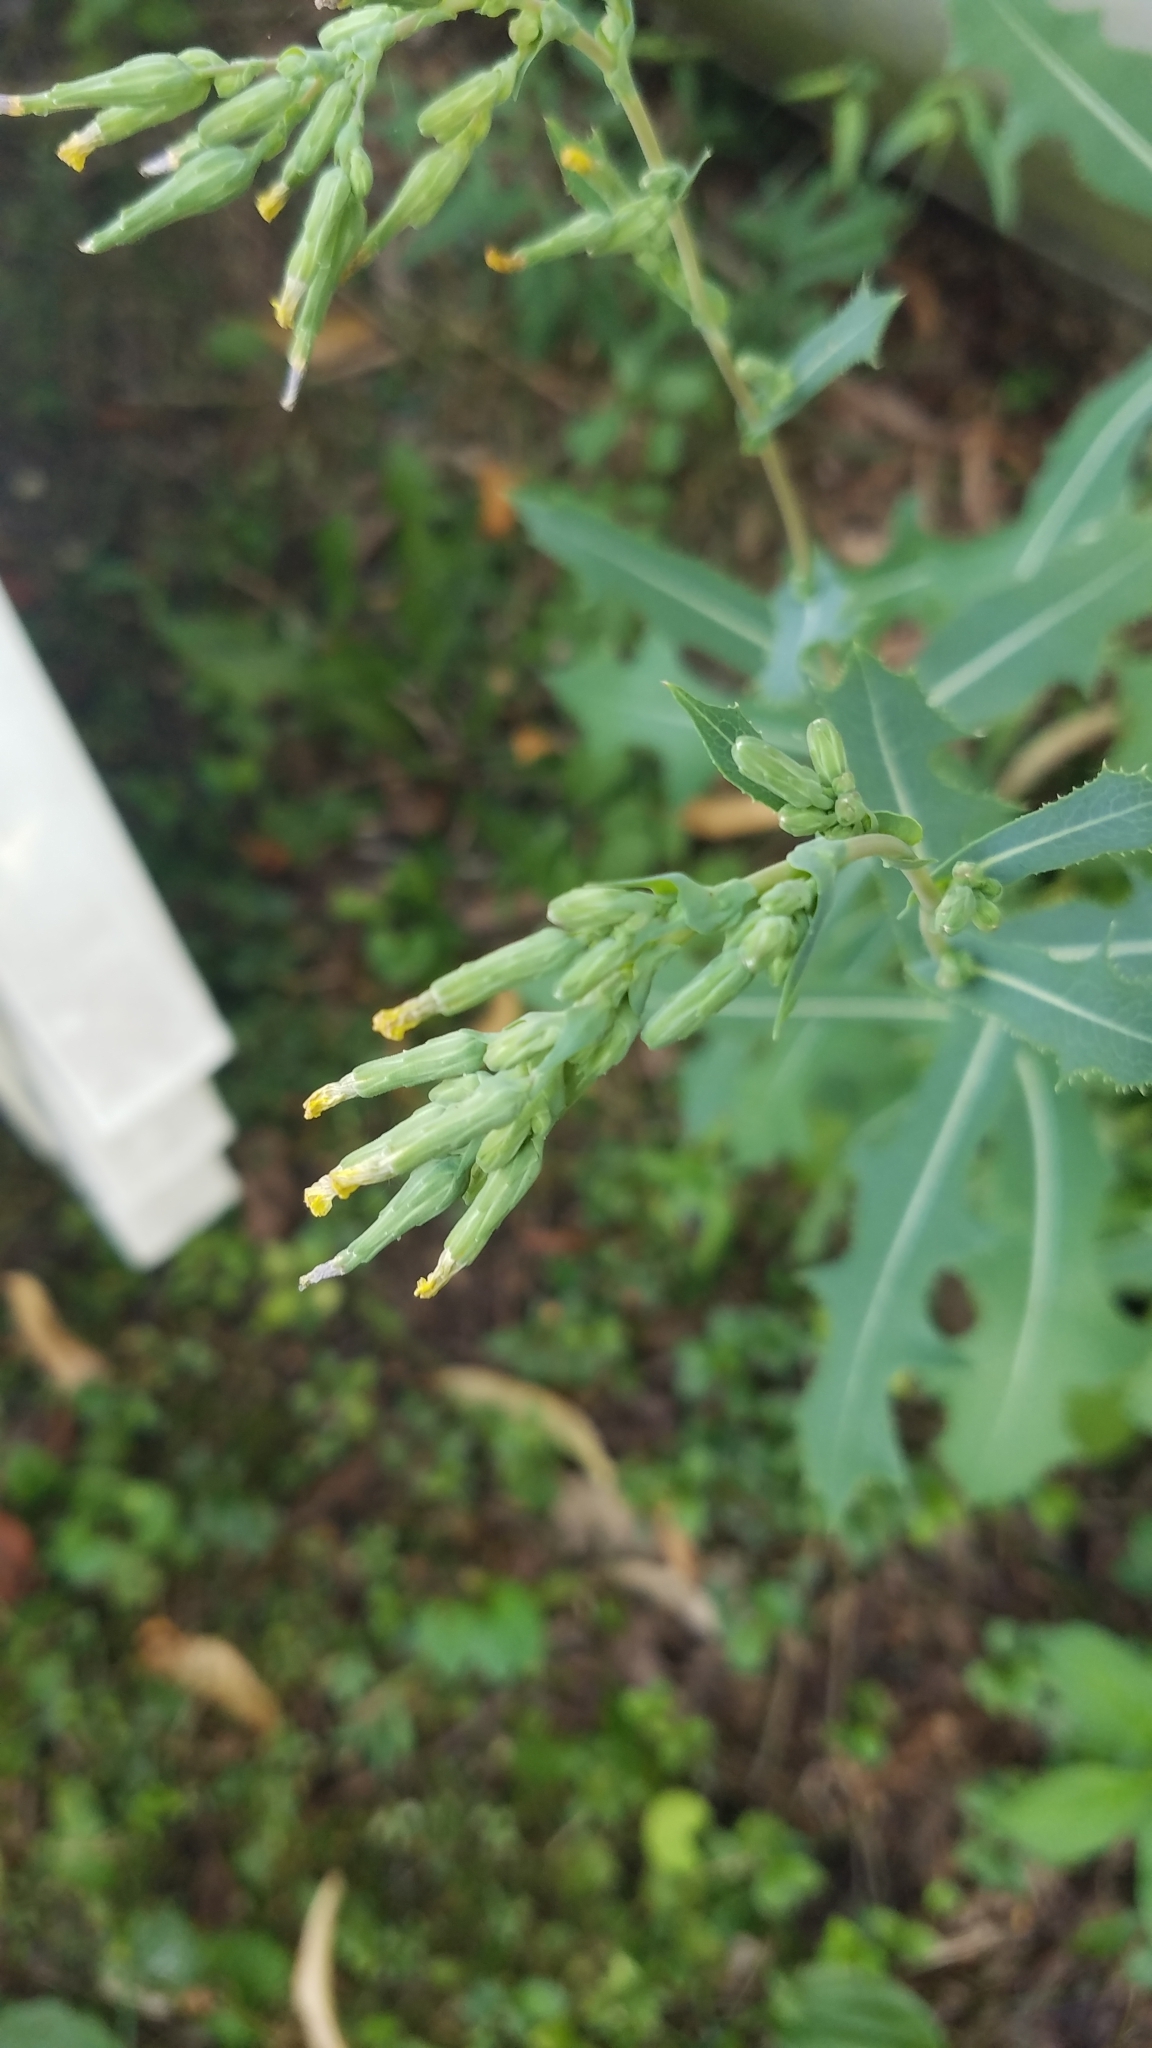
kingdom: Plantae
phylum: Tracheophyta
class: Magnoliopsida
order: Asterales
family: Asteraceae
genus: Lactuca
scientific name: Lactuca serriola
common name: Prickly lettuce
